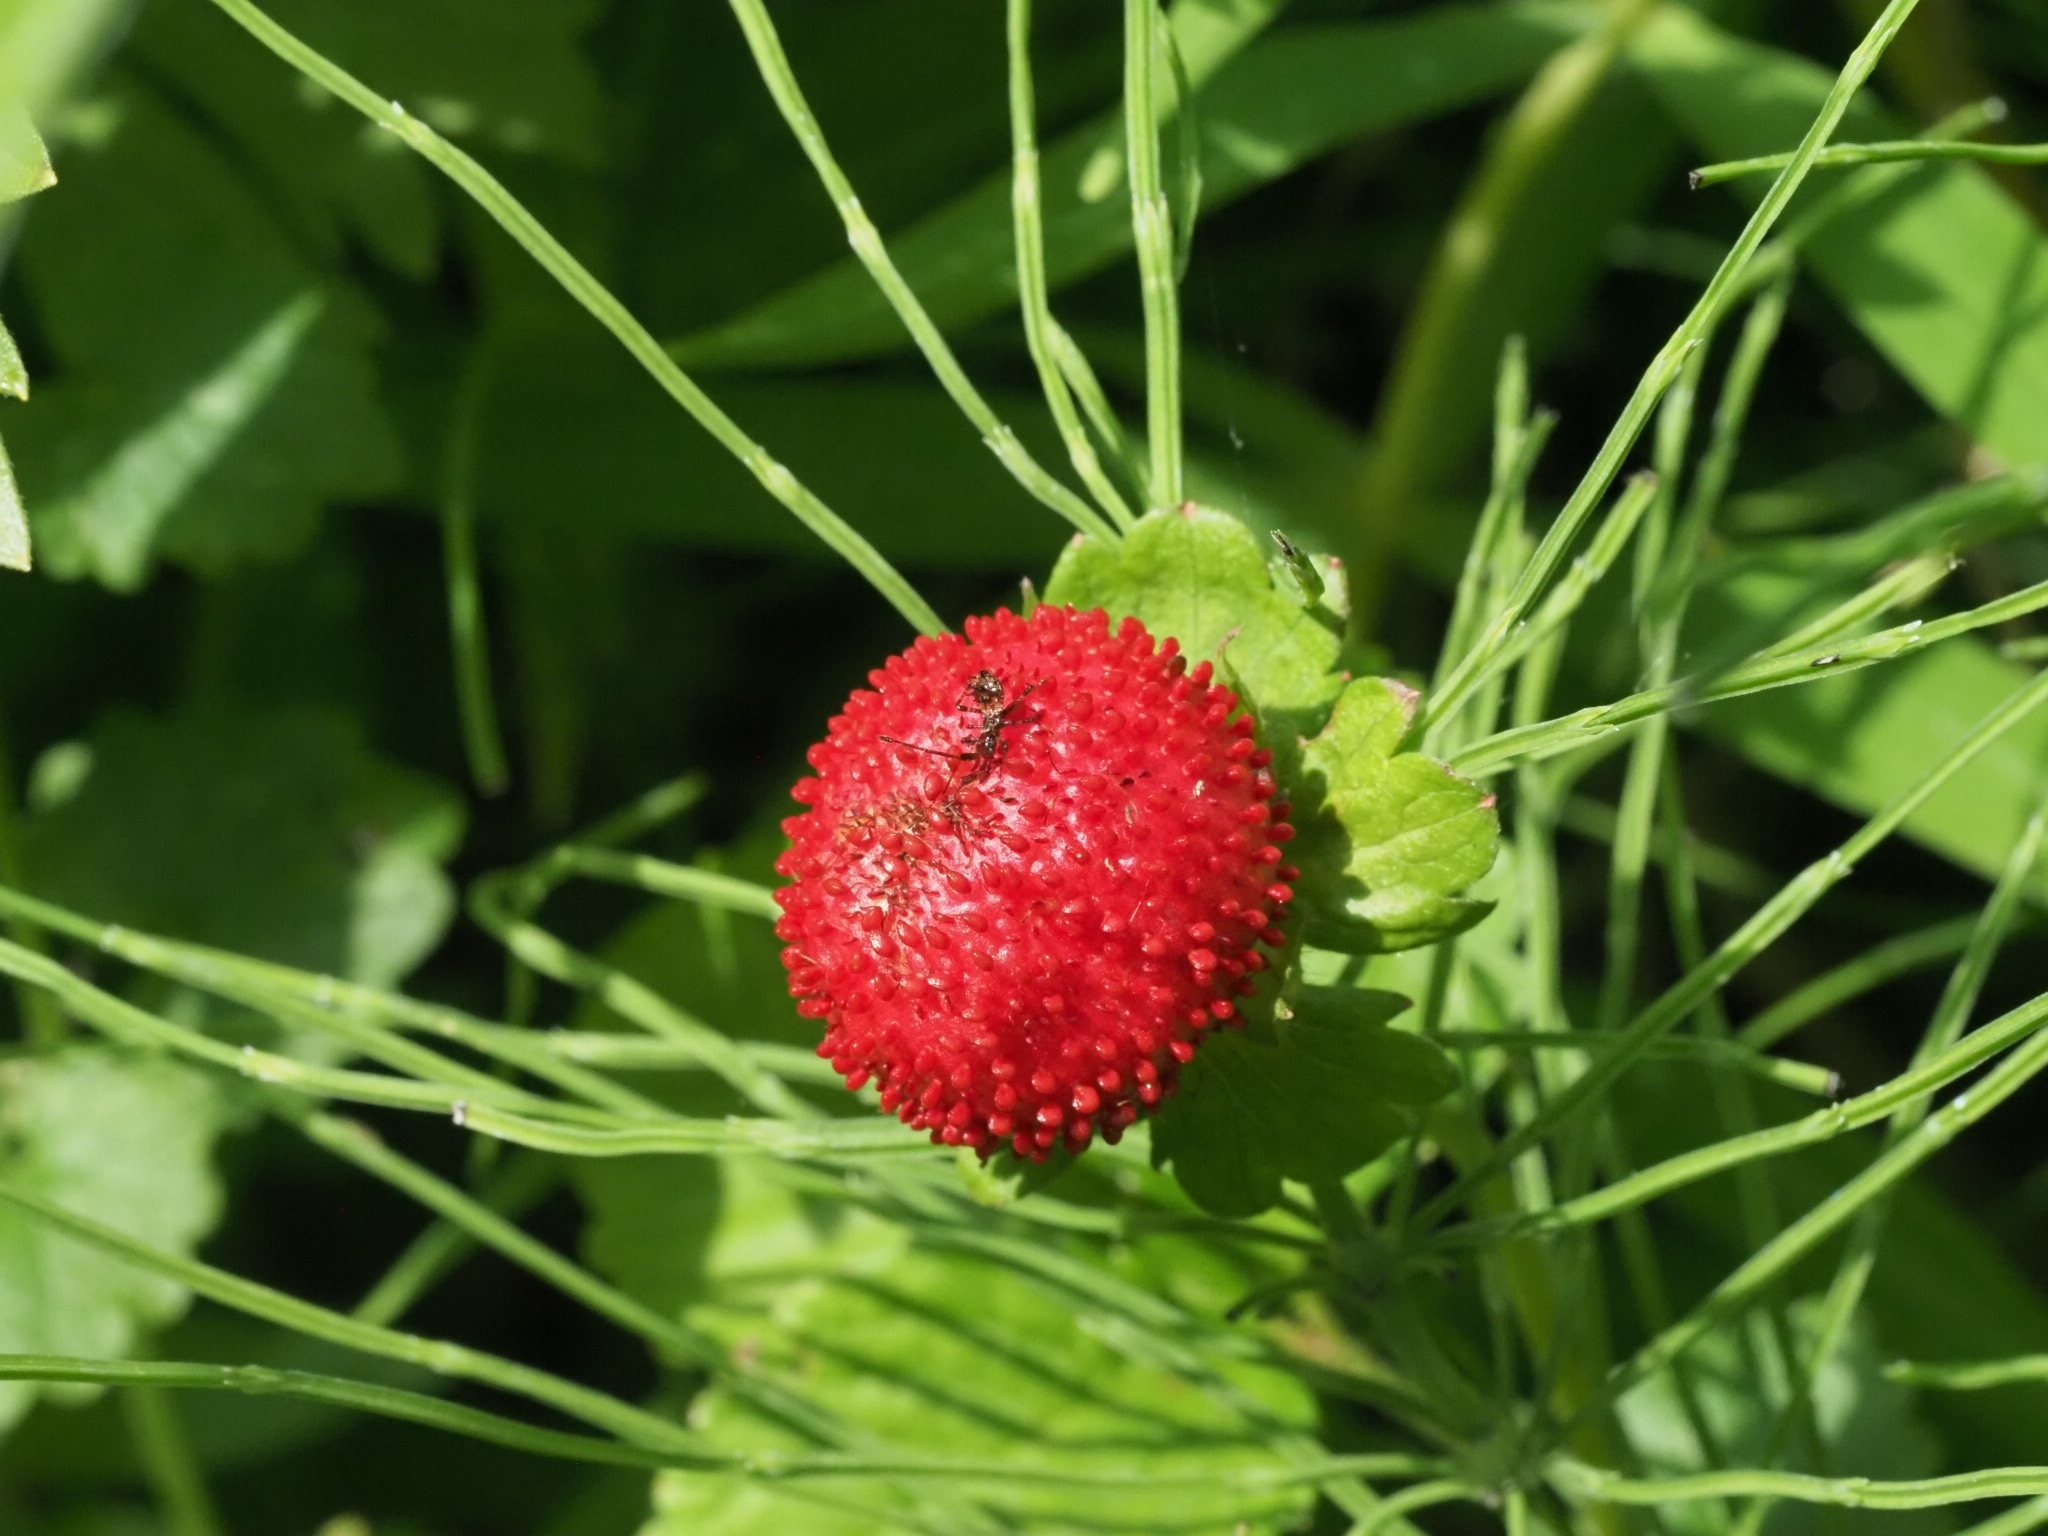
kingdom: Plantae
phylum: Tracheophyta
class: Magnoliopsida
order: Rosales
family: Rosaceae
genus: Potentilla
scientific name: Potentilla indica
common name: Yellow-flowered strawberry
